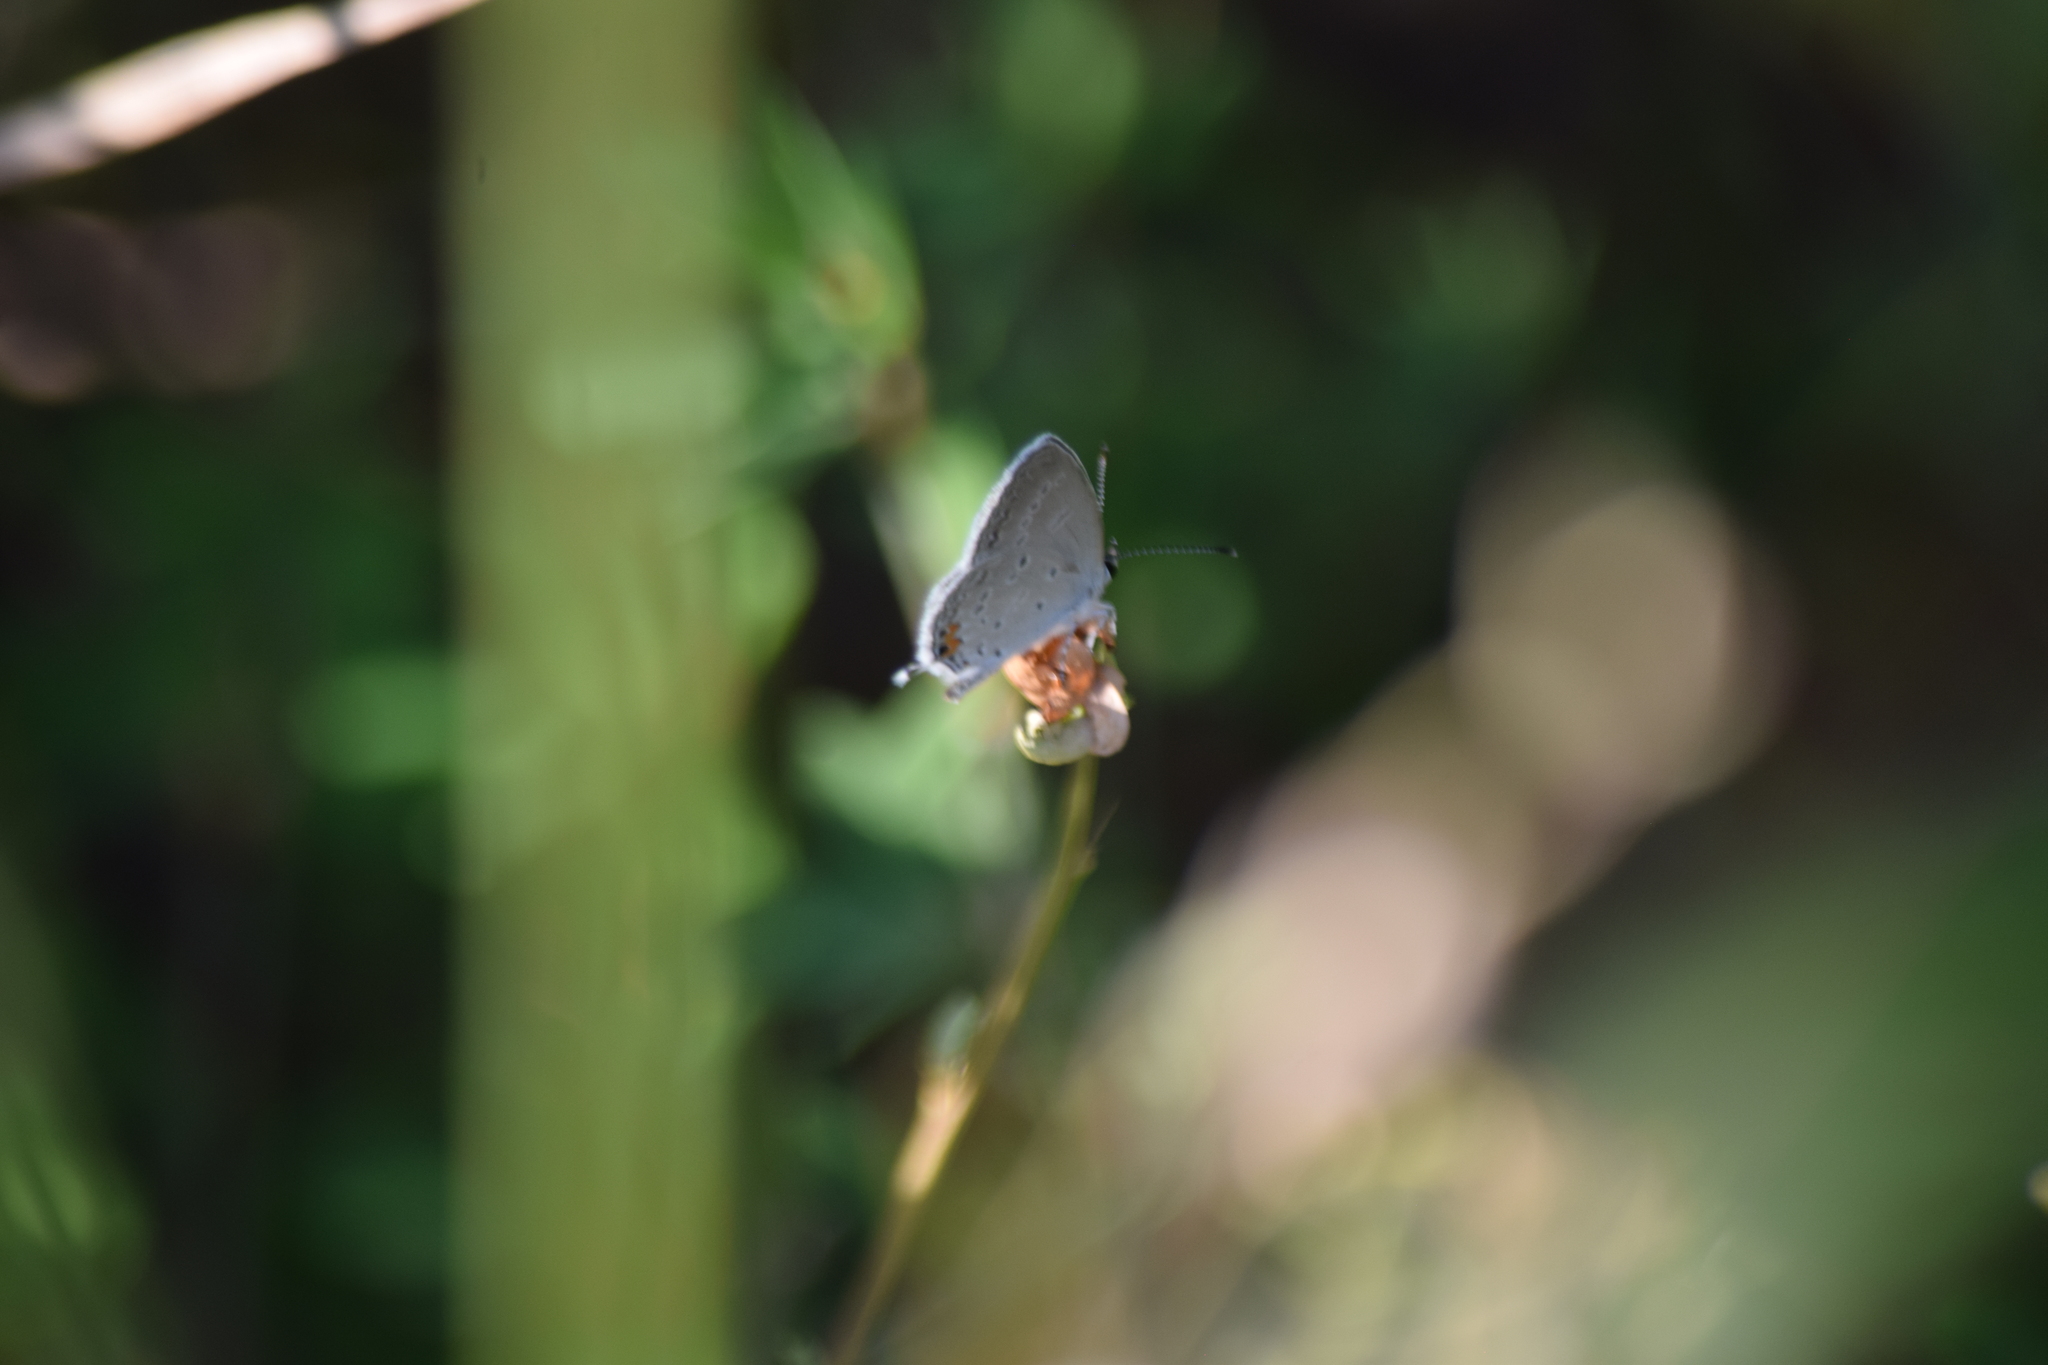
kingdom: Animalia
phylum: Arthropoda
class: Insecta
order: Lepidoptera
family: Lycaenidae
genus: Elkalyce
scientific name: Elkalyce comyntas
